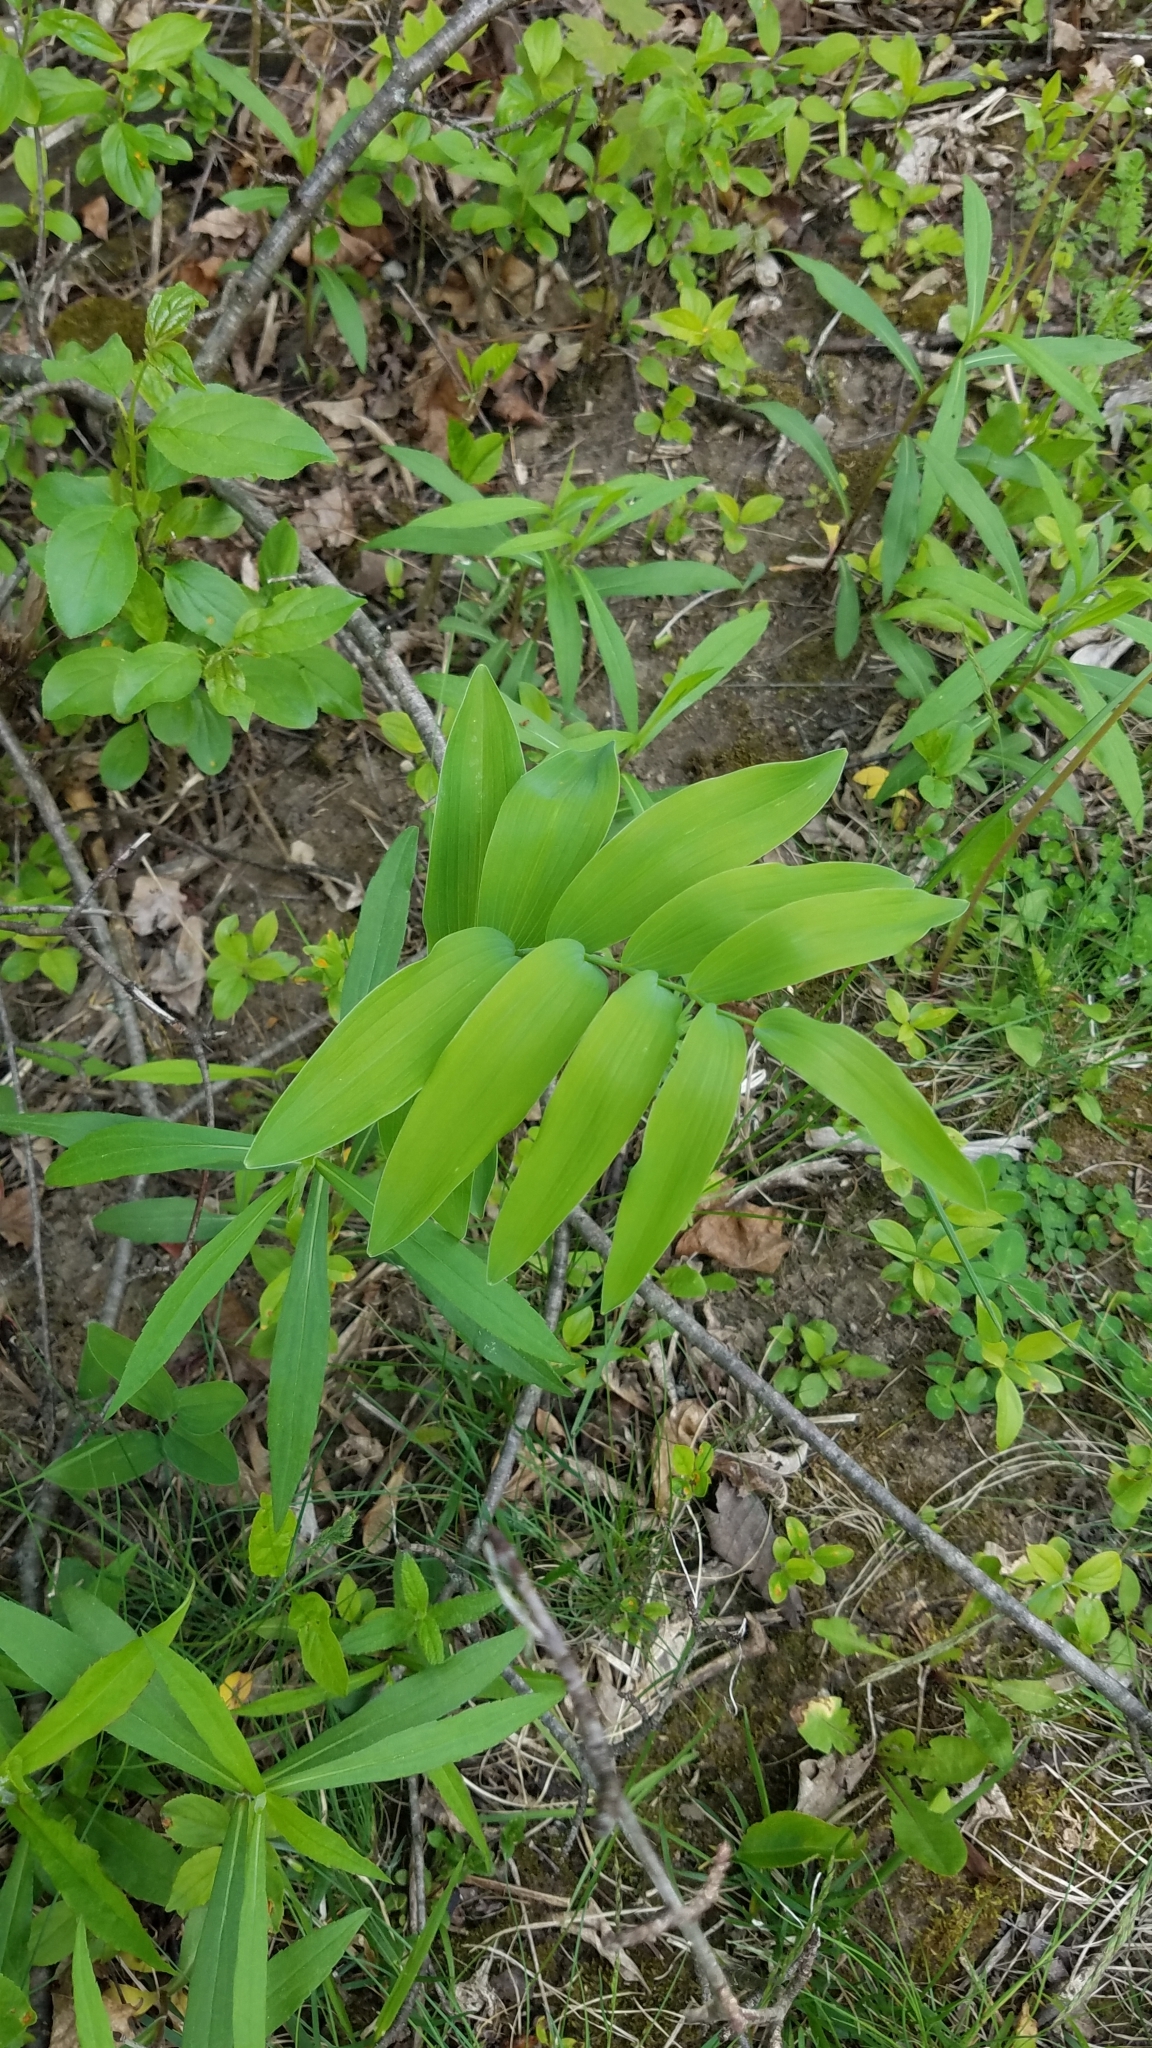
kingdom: Plantae
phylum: Tracheophyta
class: Liliopsida
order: Asparagales
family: Asparagaceae
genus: Polygonatum
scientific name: Polygonatum biflorum
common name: American solomon's-seal
